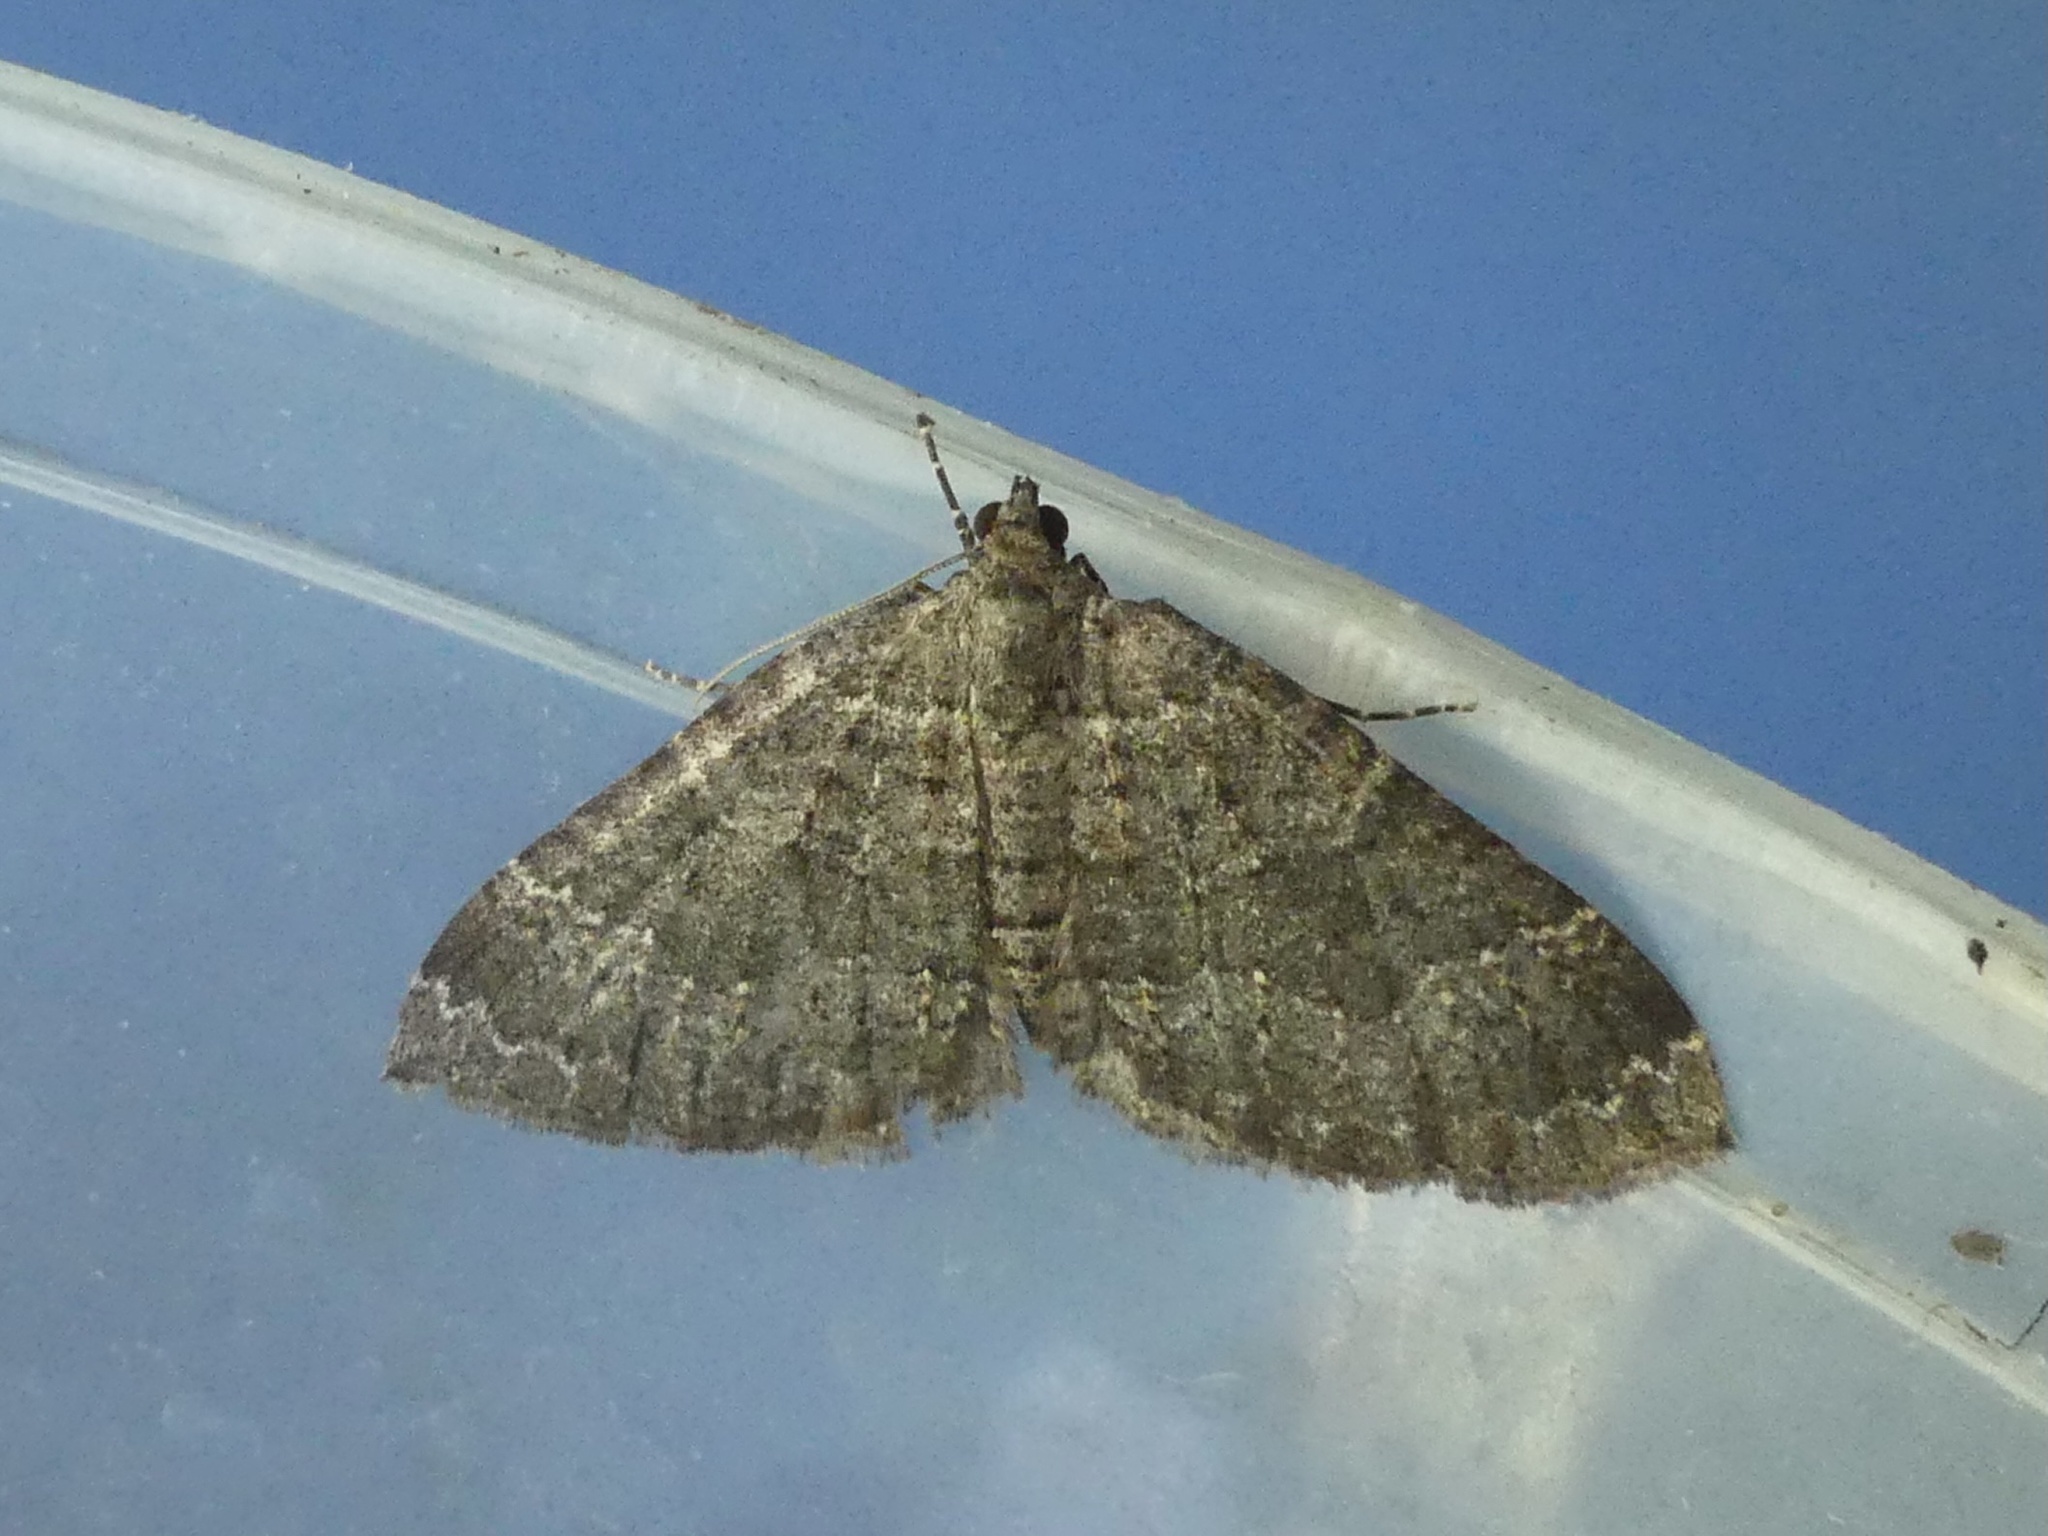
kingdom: Animalia
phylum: Arthropoda
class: Insecta
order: Lepidoptera
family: Geometridae
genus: Nebula
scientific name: Nebula malvata
